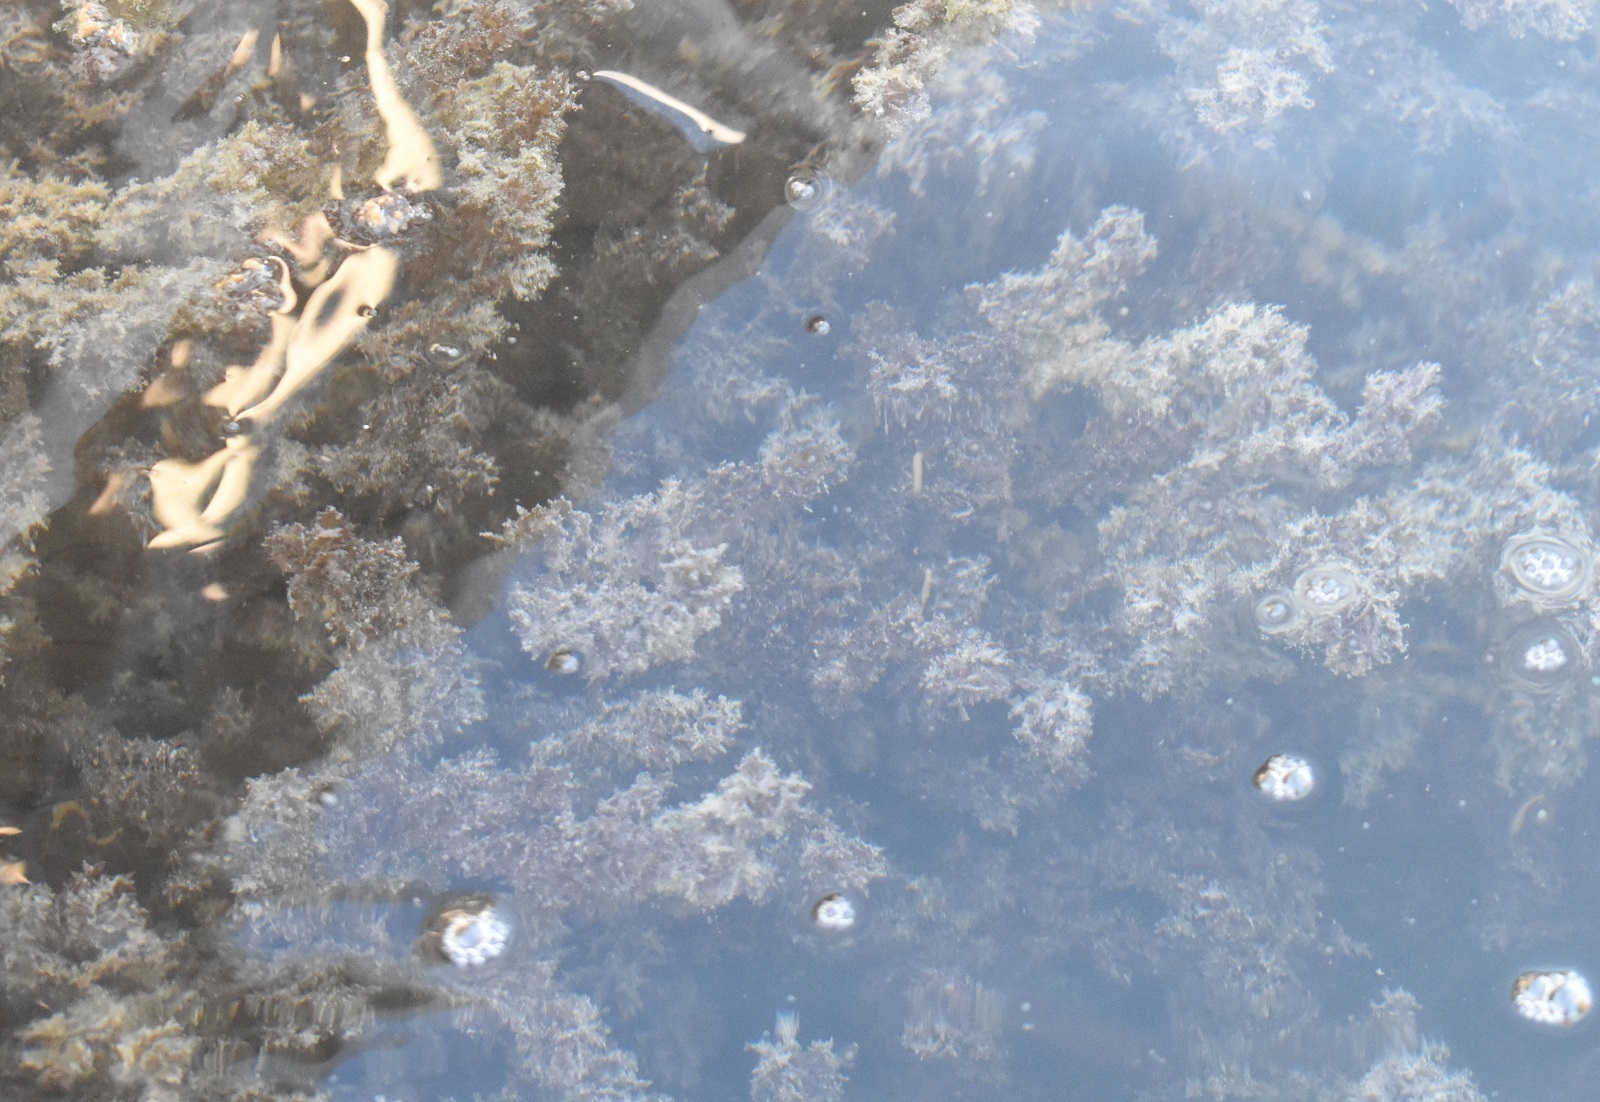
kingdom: Plantae
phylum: Tracheophyta
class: Liliopsida
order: Alismatales
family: Hydrocharitaceae
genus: Najas
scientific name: Najas marina
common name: Holly-leaved naiad
